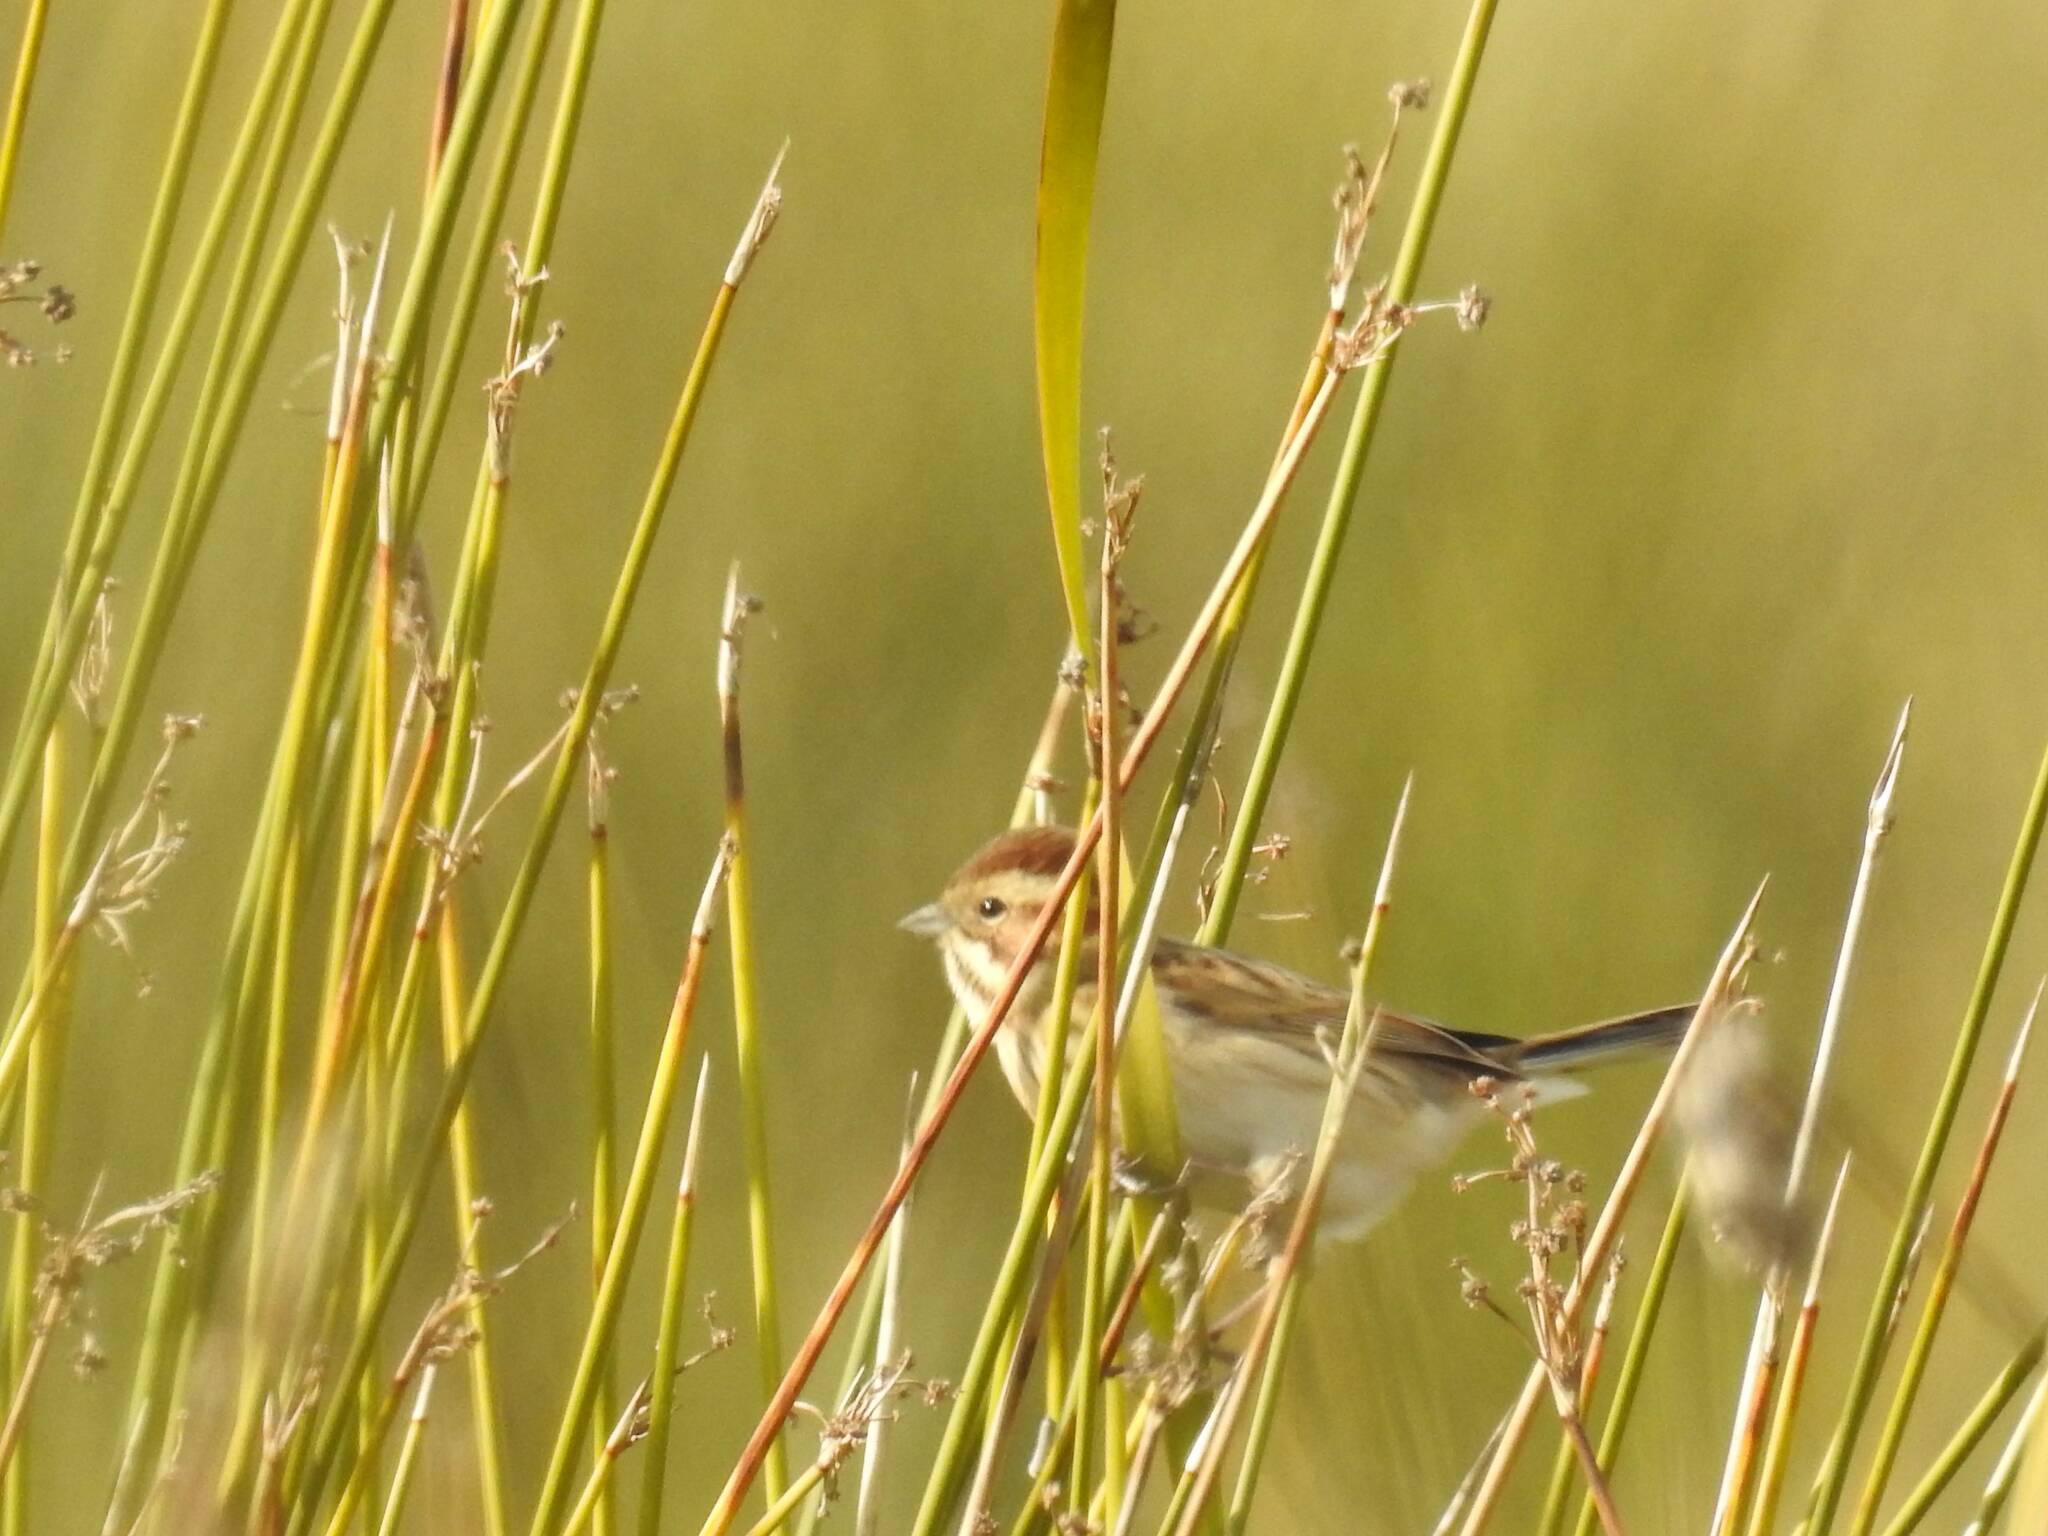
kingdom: Animalia
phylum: Chordata
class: Aves
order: Passeriformes
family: Emberizidae
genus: Emberiza
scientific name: Emberiza schoeniclus
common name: Reed bunting
